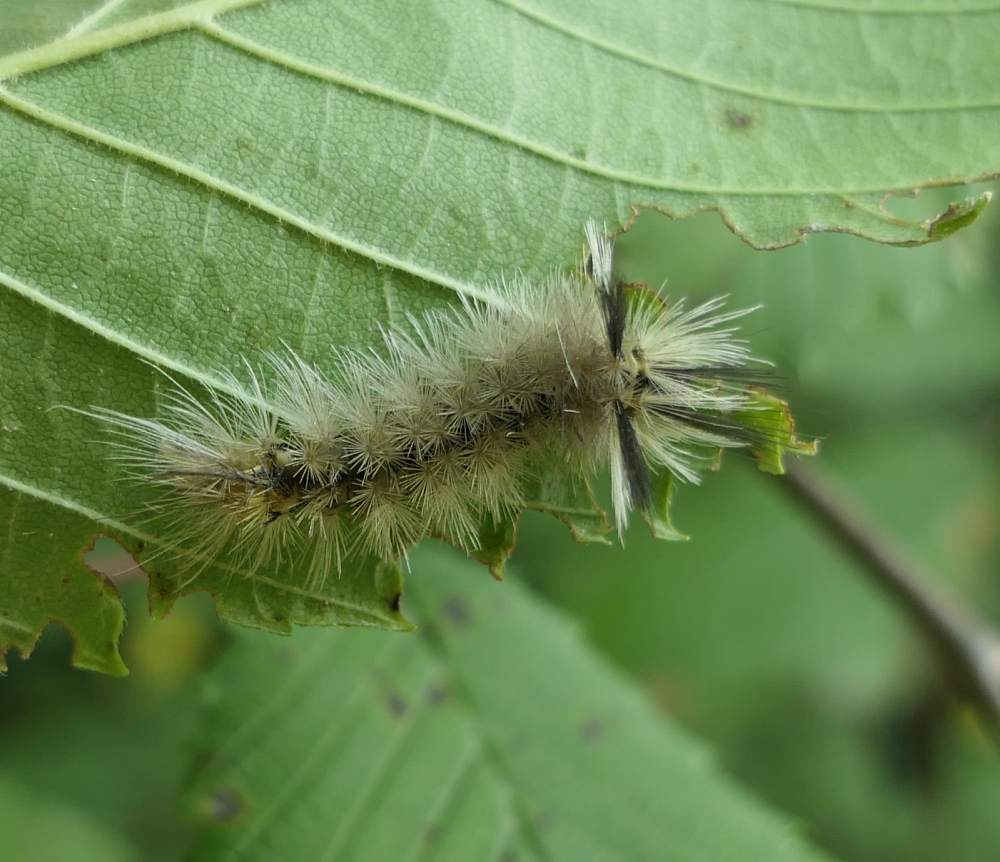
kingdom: Animalia
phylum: Arthropoda
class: Insecta
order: Lepidoptera
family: Erebidae
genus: Halysidota
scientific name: Halysidota tessellaris
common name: Banded tussock moth
